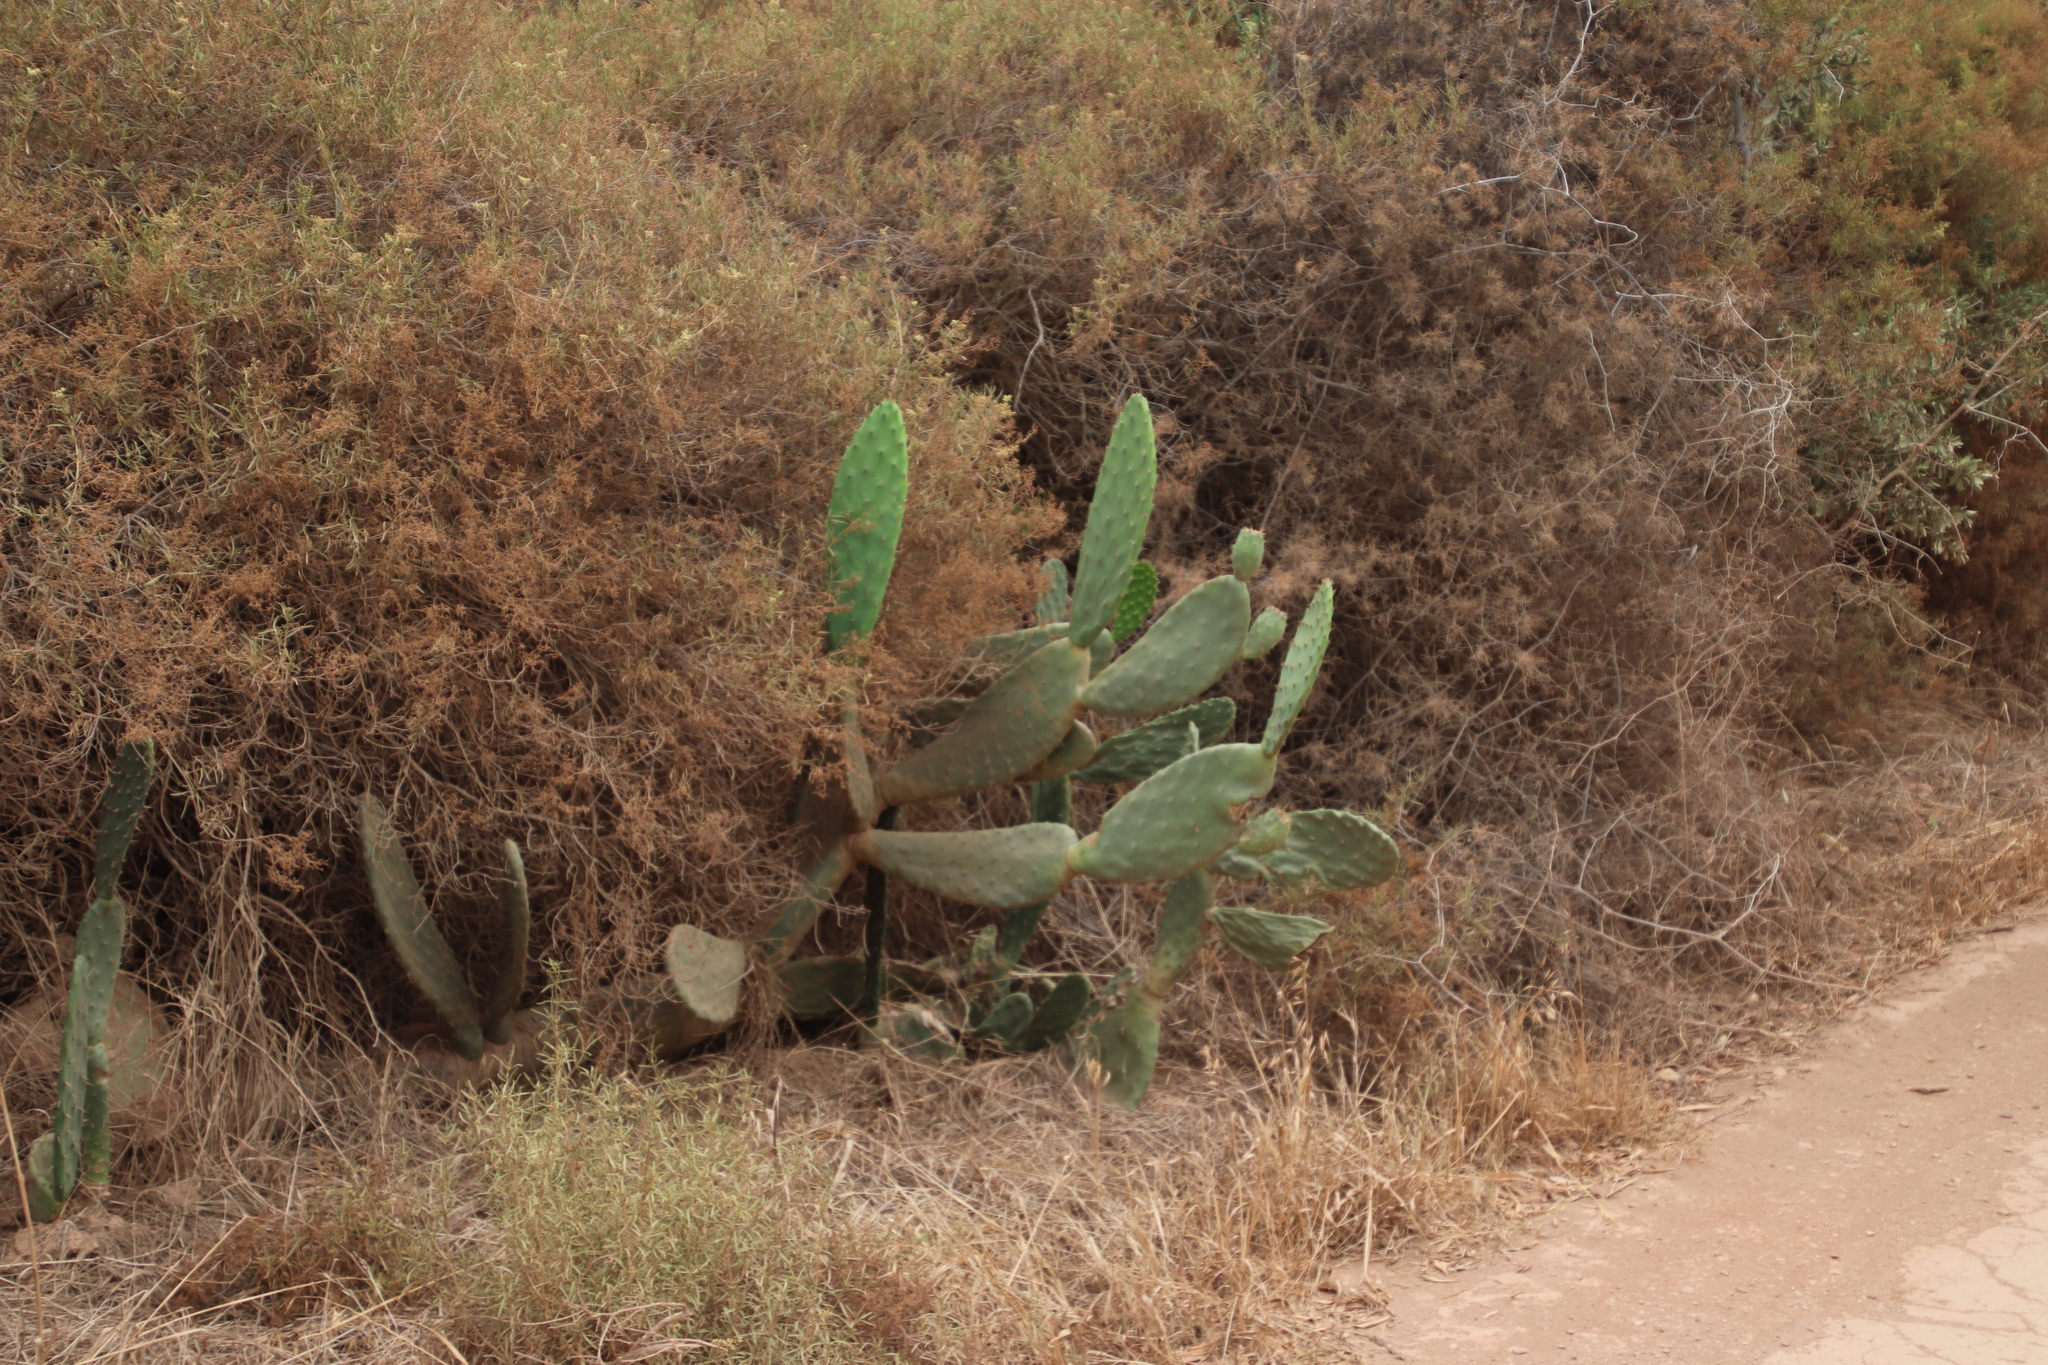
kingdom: Plantae
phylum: Tracheophyta
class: Magnoliopsida
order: Caryophyllales
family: Cactaceae
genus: Opuntia
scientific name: Opuntia ficus-indica
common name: Barbary fig
